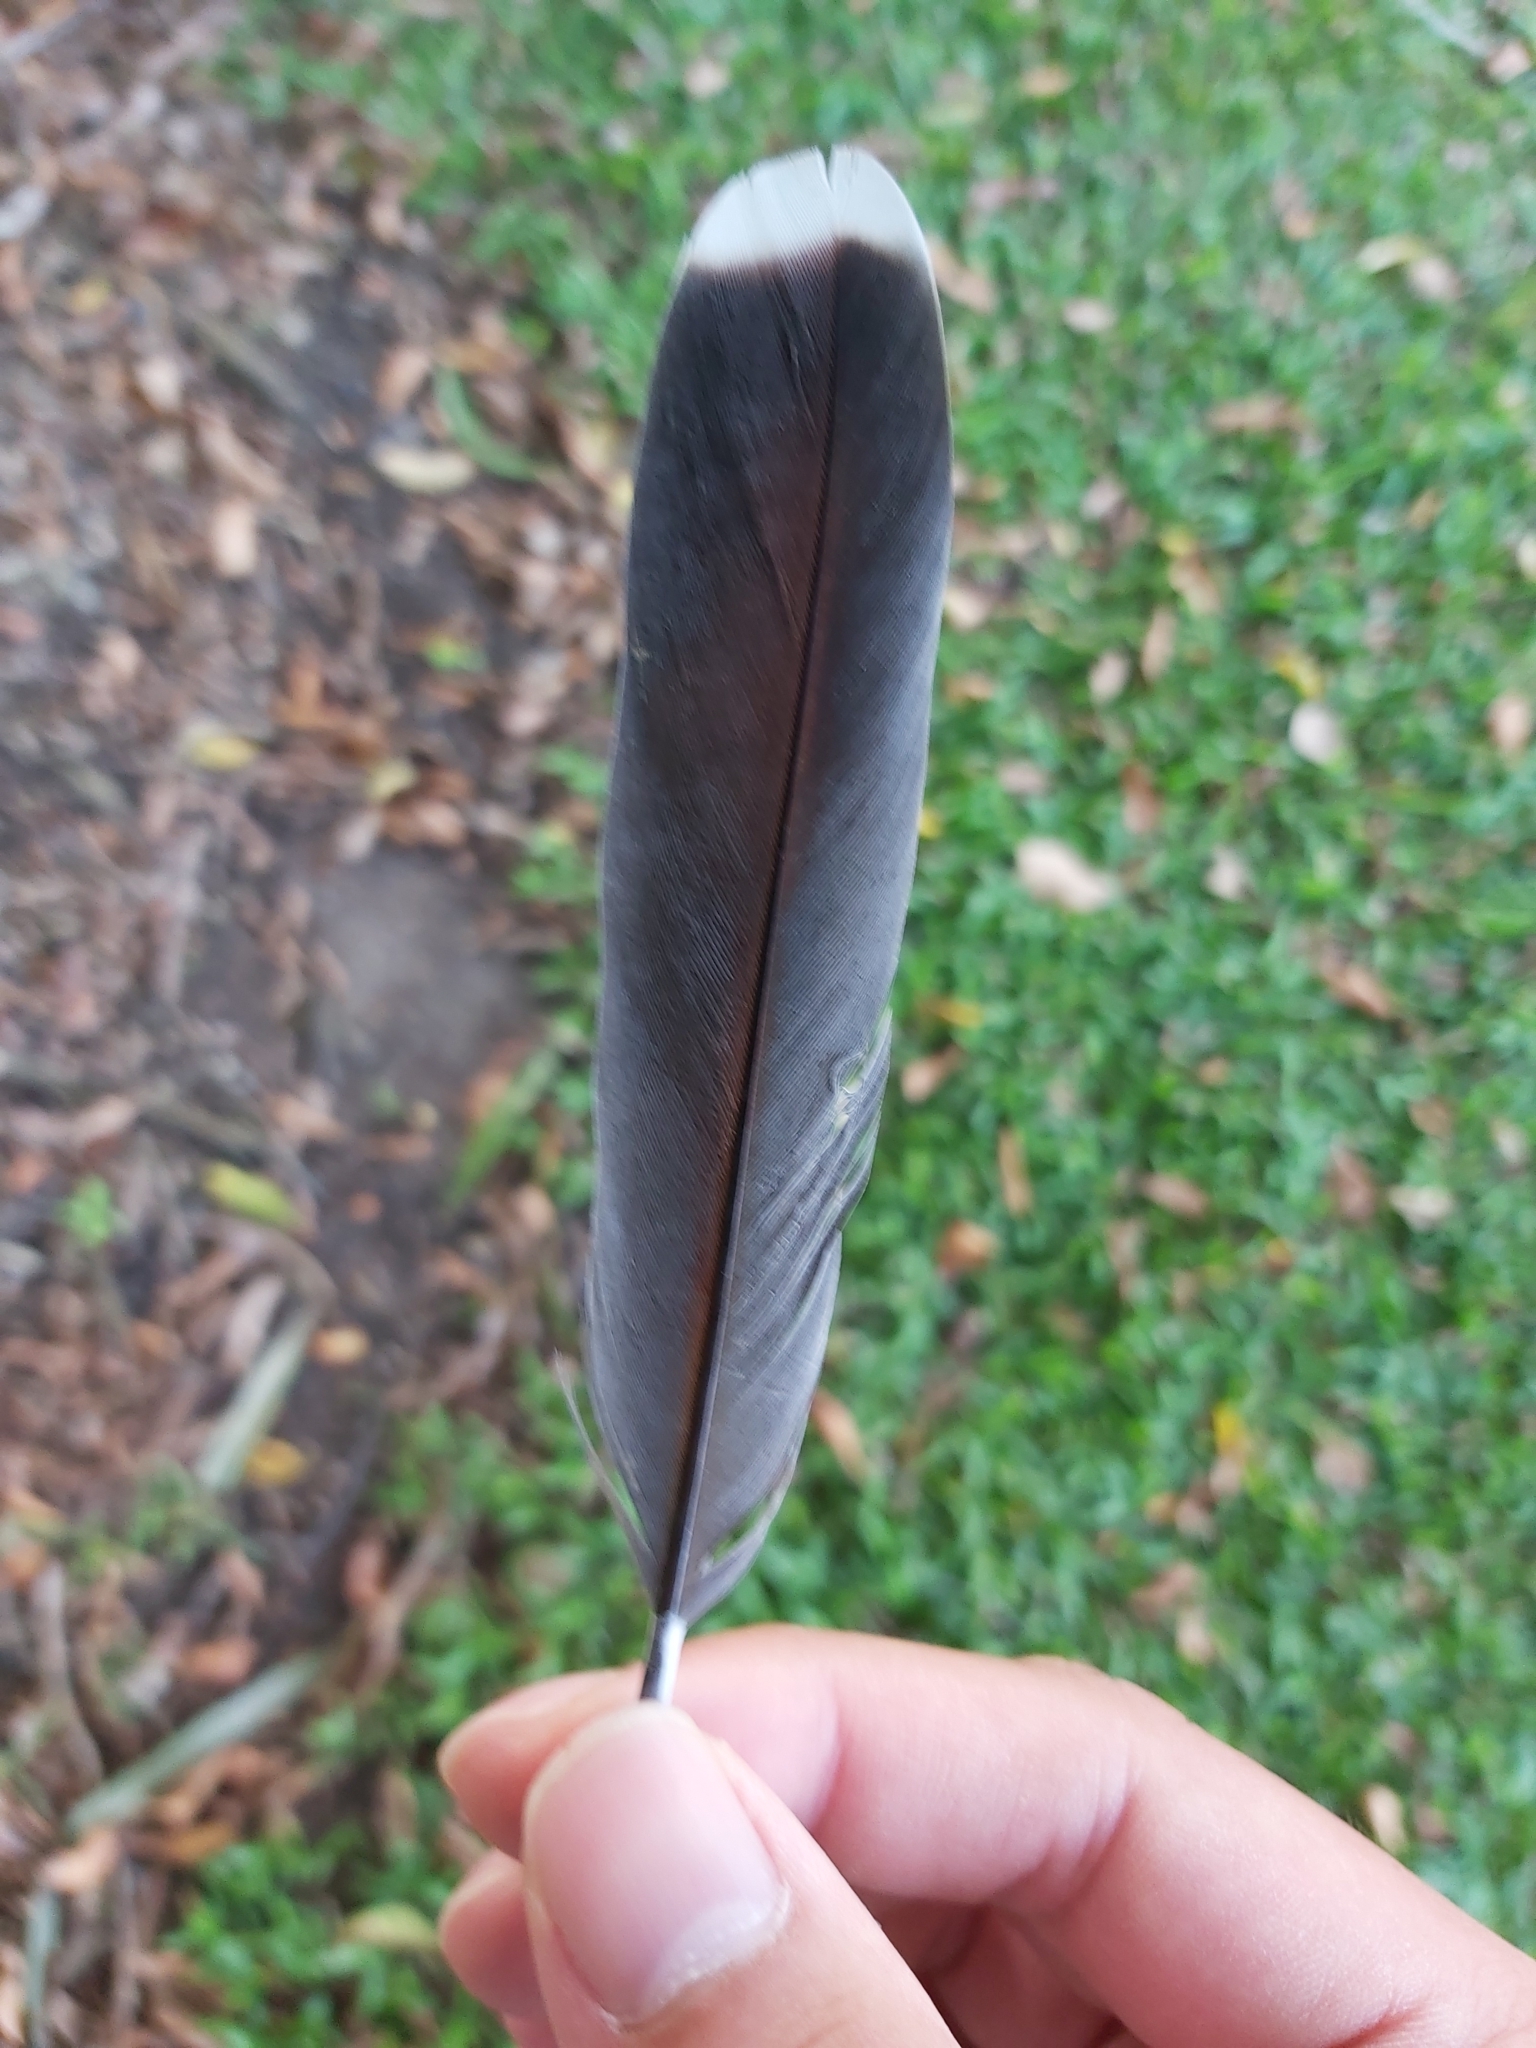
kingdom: Animalia
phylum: Chordata
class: Aves
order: Columbiformes
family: Columbidae
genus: Geopelia
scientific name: Geopelia humeralis
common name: Bar-shouldered dove
